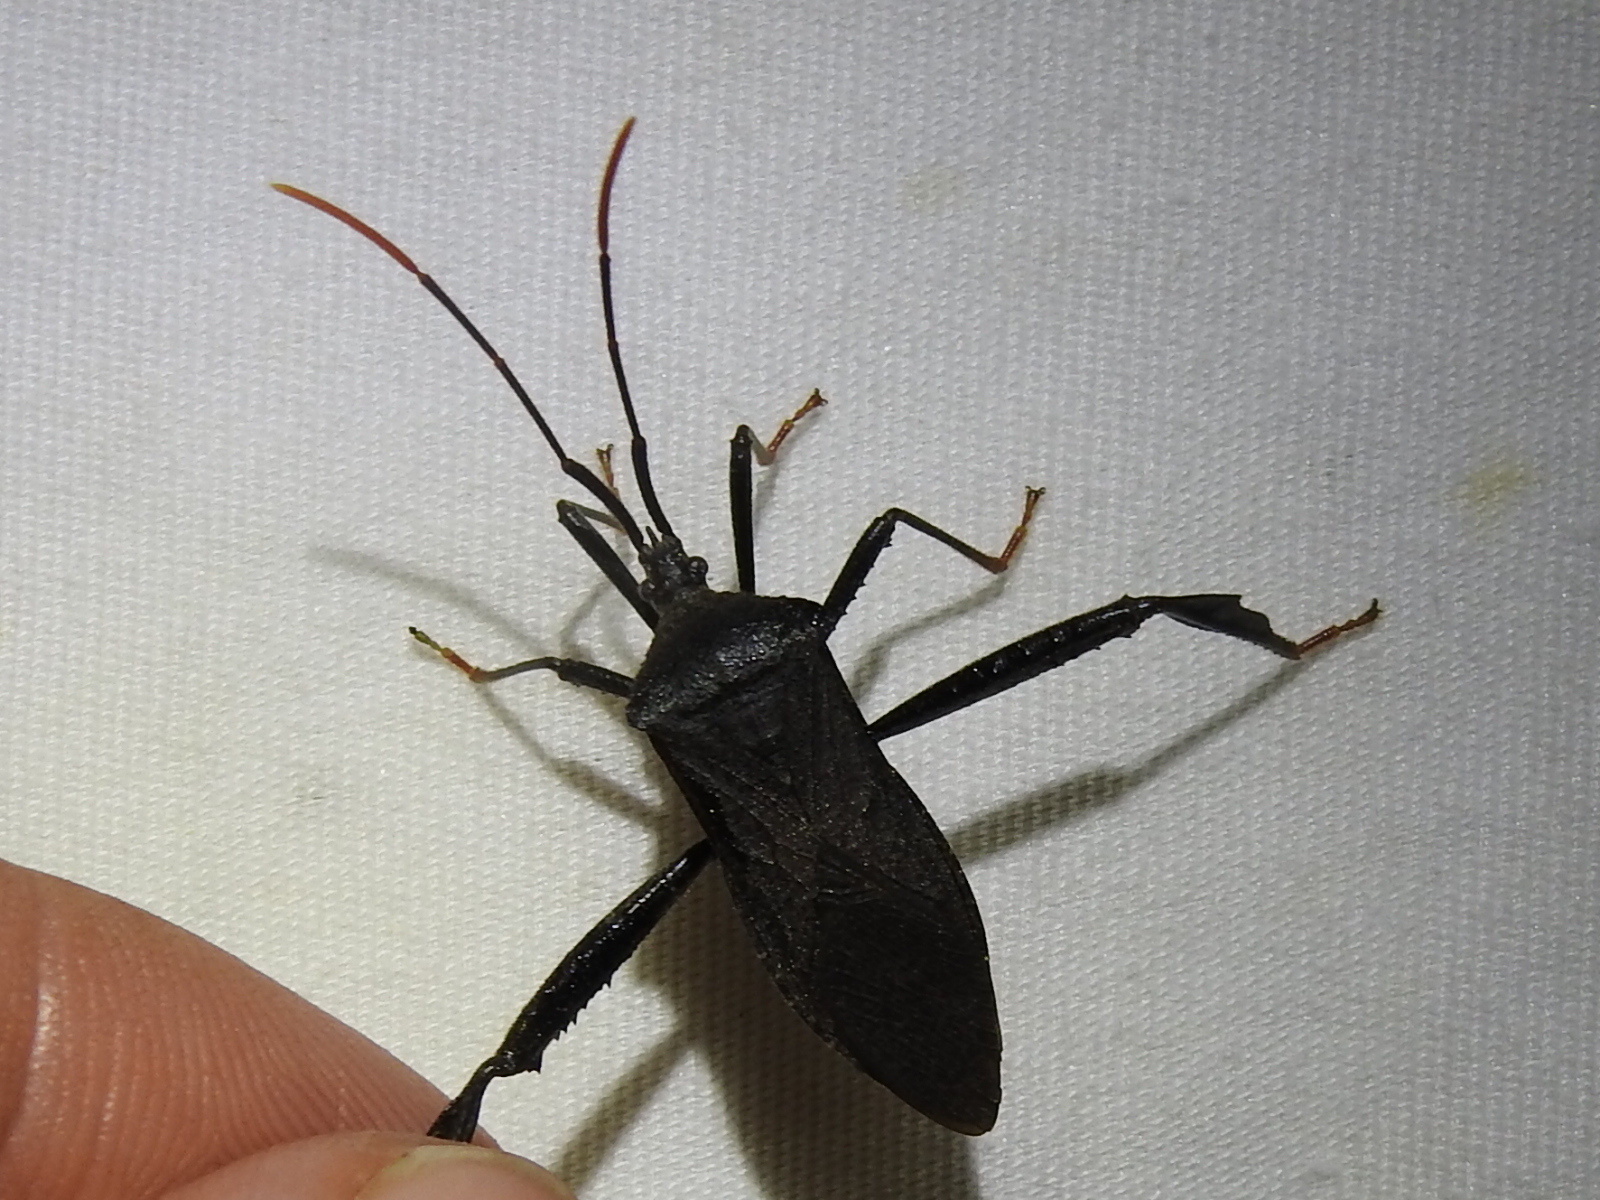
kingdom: Animalia
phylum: Arthropoda
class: Insecta
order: Hemiptera
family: Coreidae
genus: Acanthocephala
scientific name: Acanthocephala terminalis
